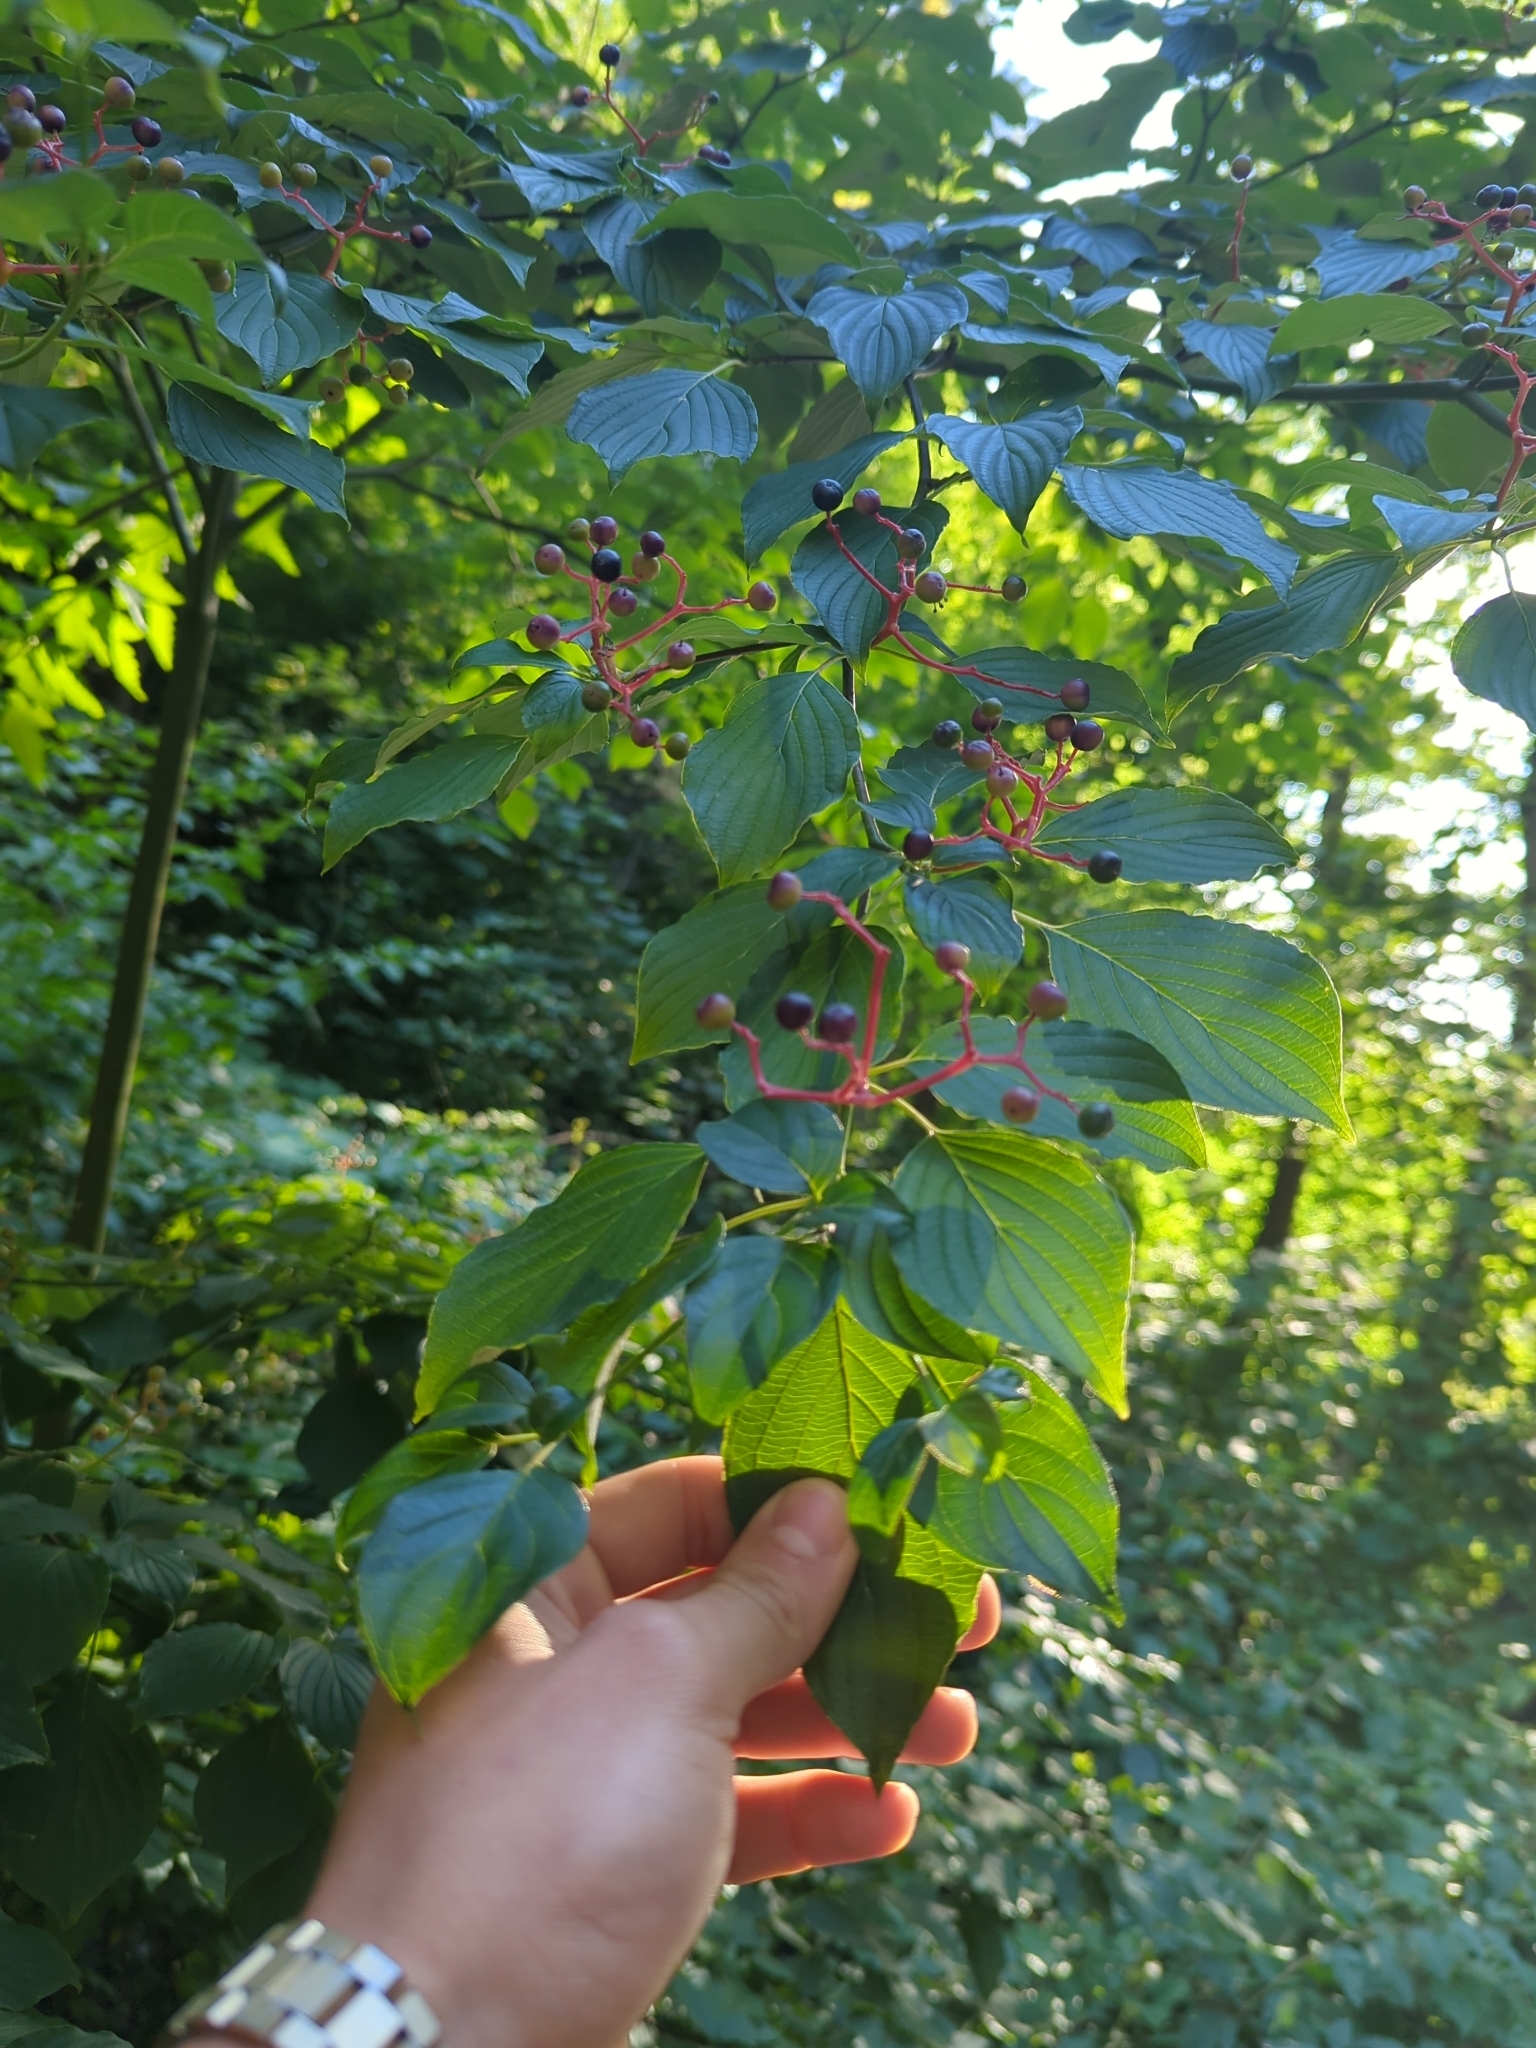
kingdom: Plantae
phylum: Tracheophyta
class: Magnoliopsida
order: Cornales
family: Cornaceae
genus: Cornus
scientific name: Cornus alternifolia
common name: Pagoda dogwood
